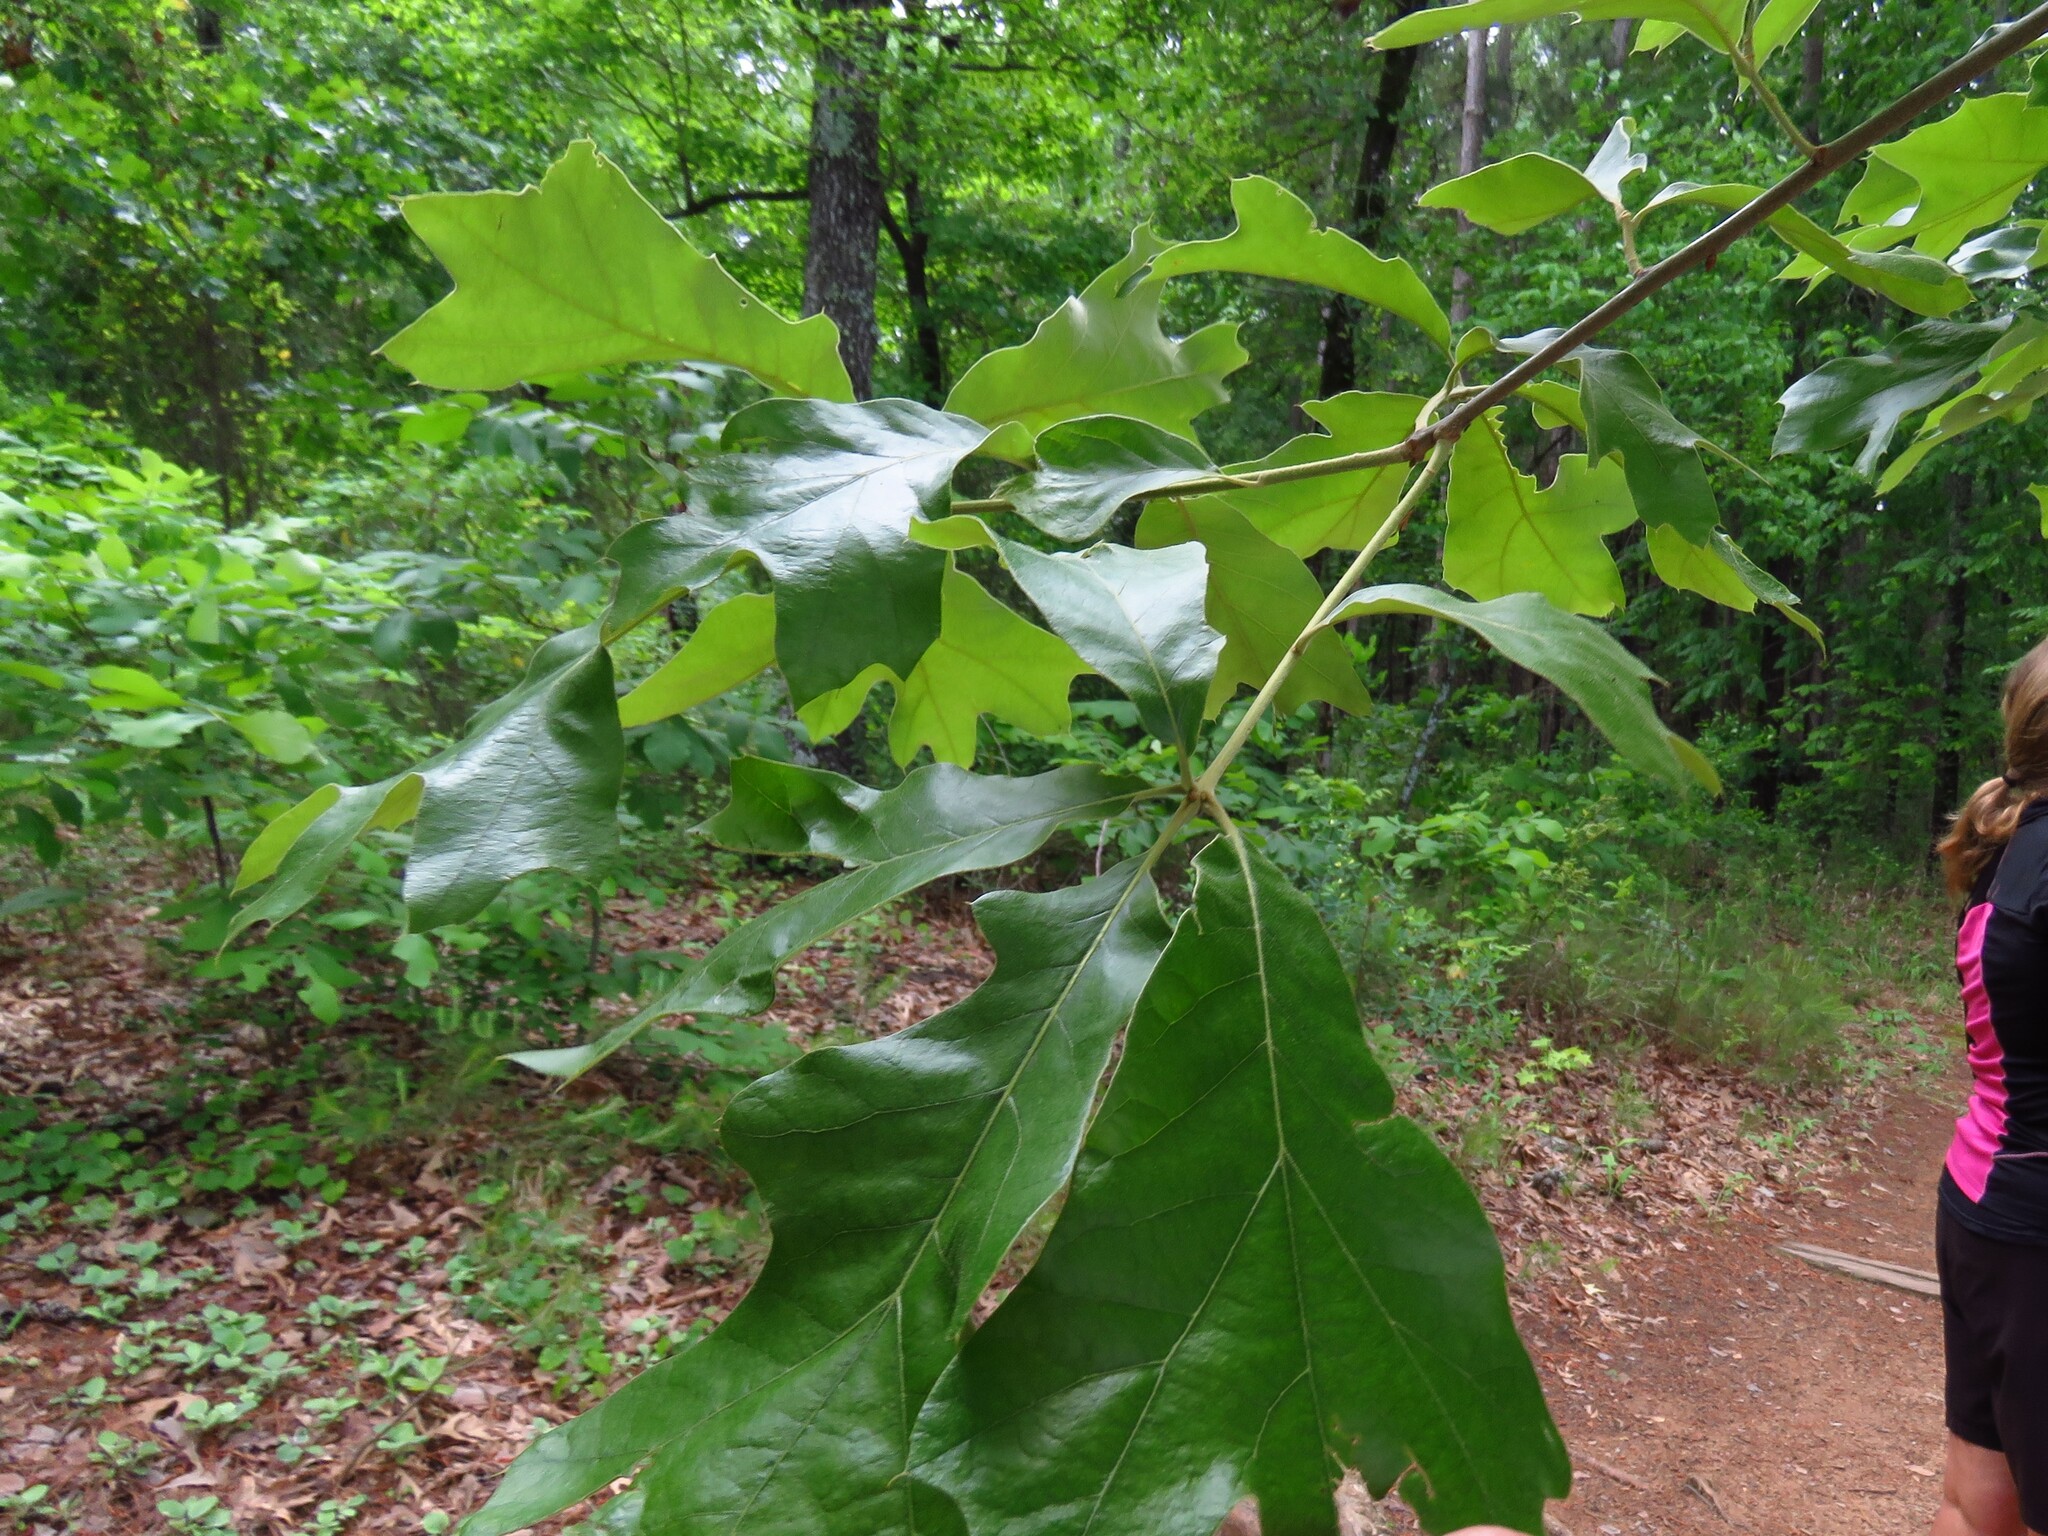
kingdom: Plantae
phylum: Tracheophyta
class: Magnoliopsida
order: Fagales
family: Fagaceae
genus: Quercus
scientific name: Quercus marilandica
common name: Blackjack oak
